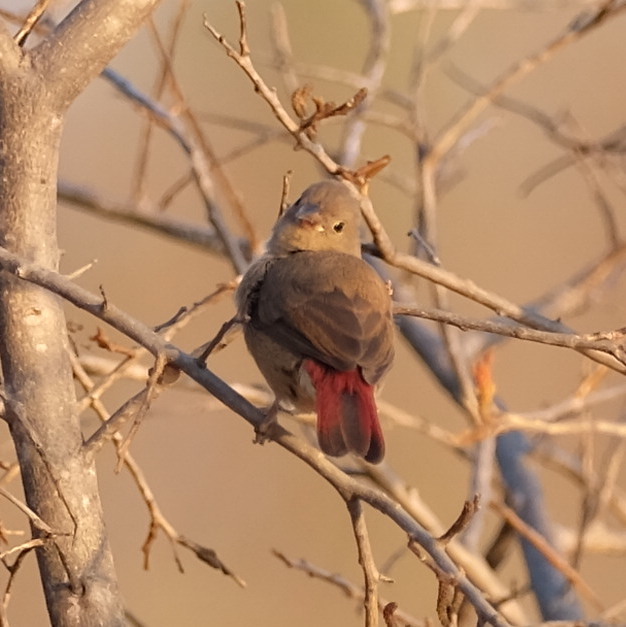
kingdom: Animalia
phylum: Chordata
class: Aves
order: Passeriformes
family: Estrildidae
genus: Lagonosticta
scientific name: Lagonosticta senegala
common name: Red-billed firefinch
